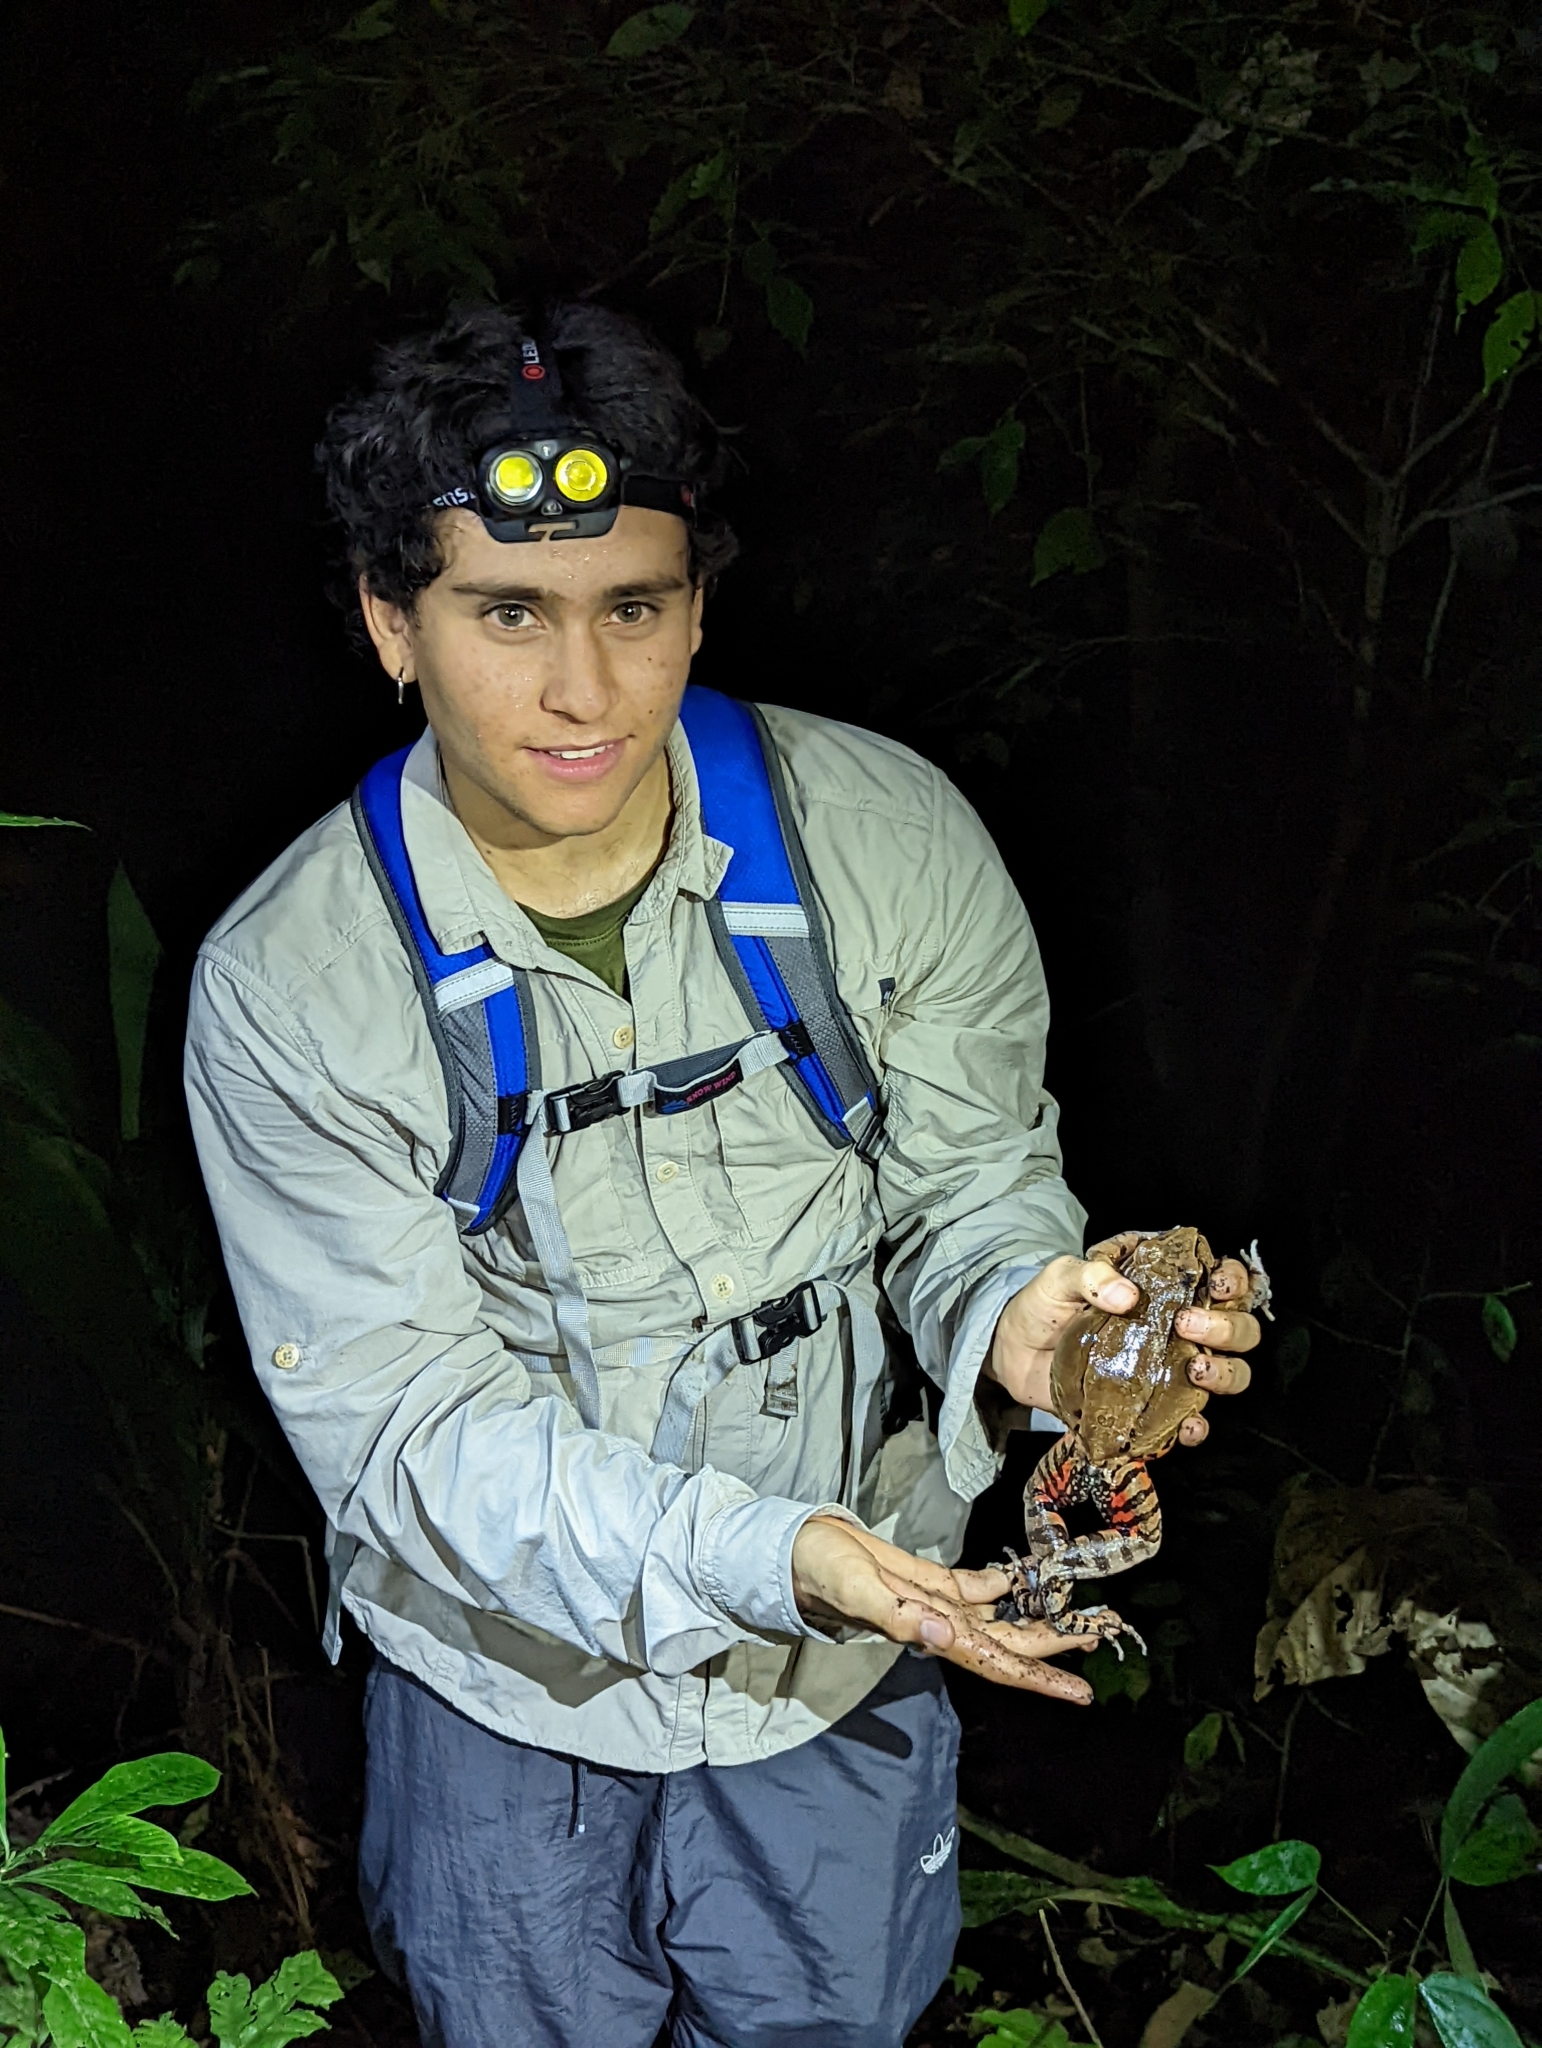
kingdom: Animalia
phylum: Chordata
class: Amphibia
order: Anura
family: Leptodactylidae
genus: Leptodactylus
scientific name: Leptodactylus savagei
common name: Savage's thin-toed frog
